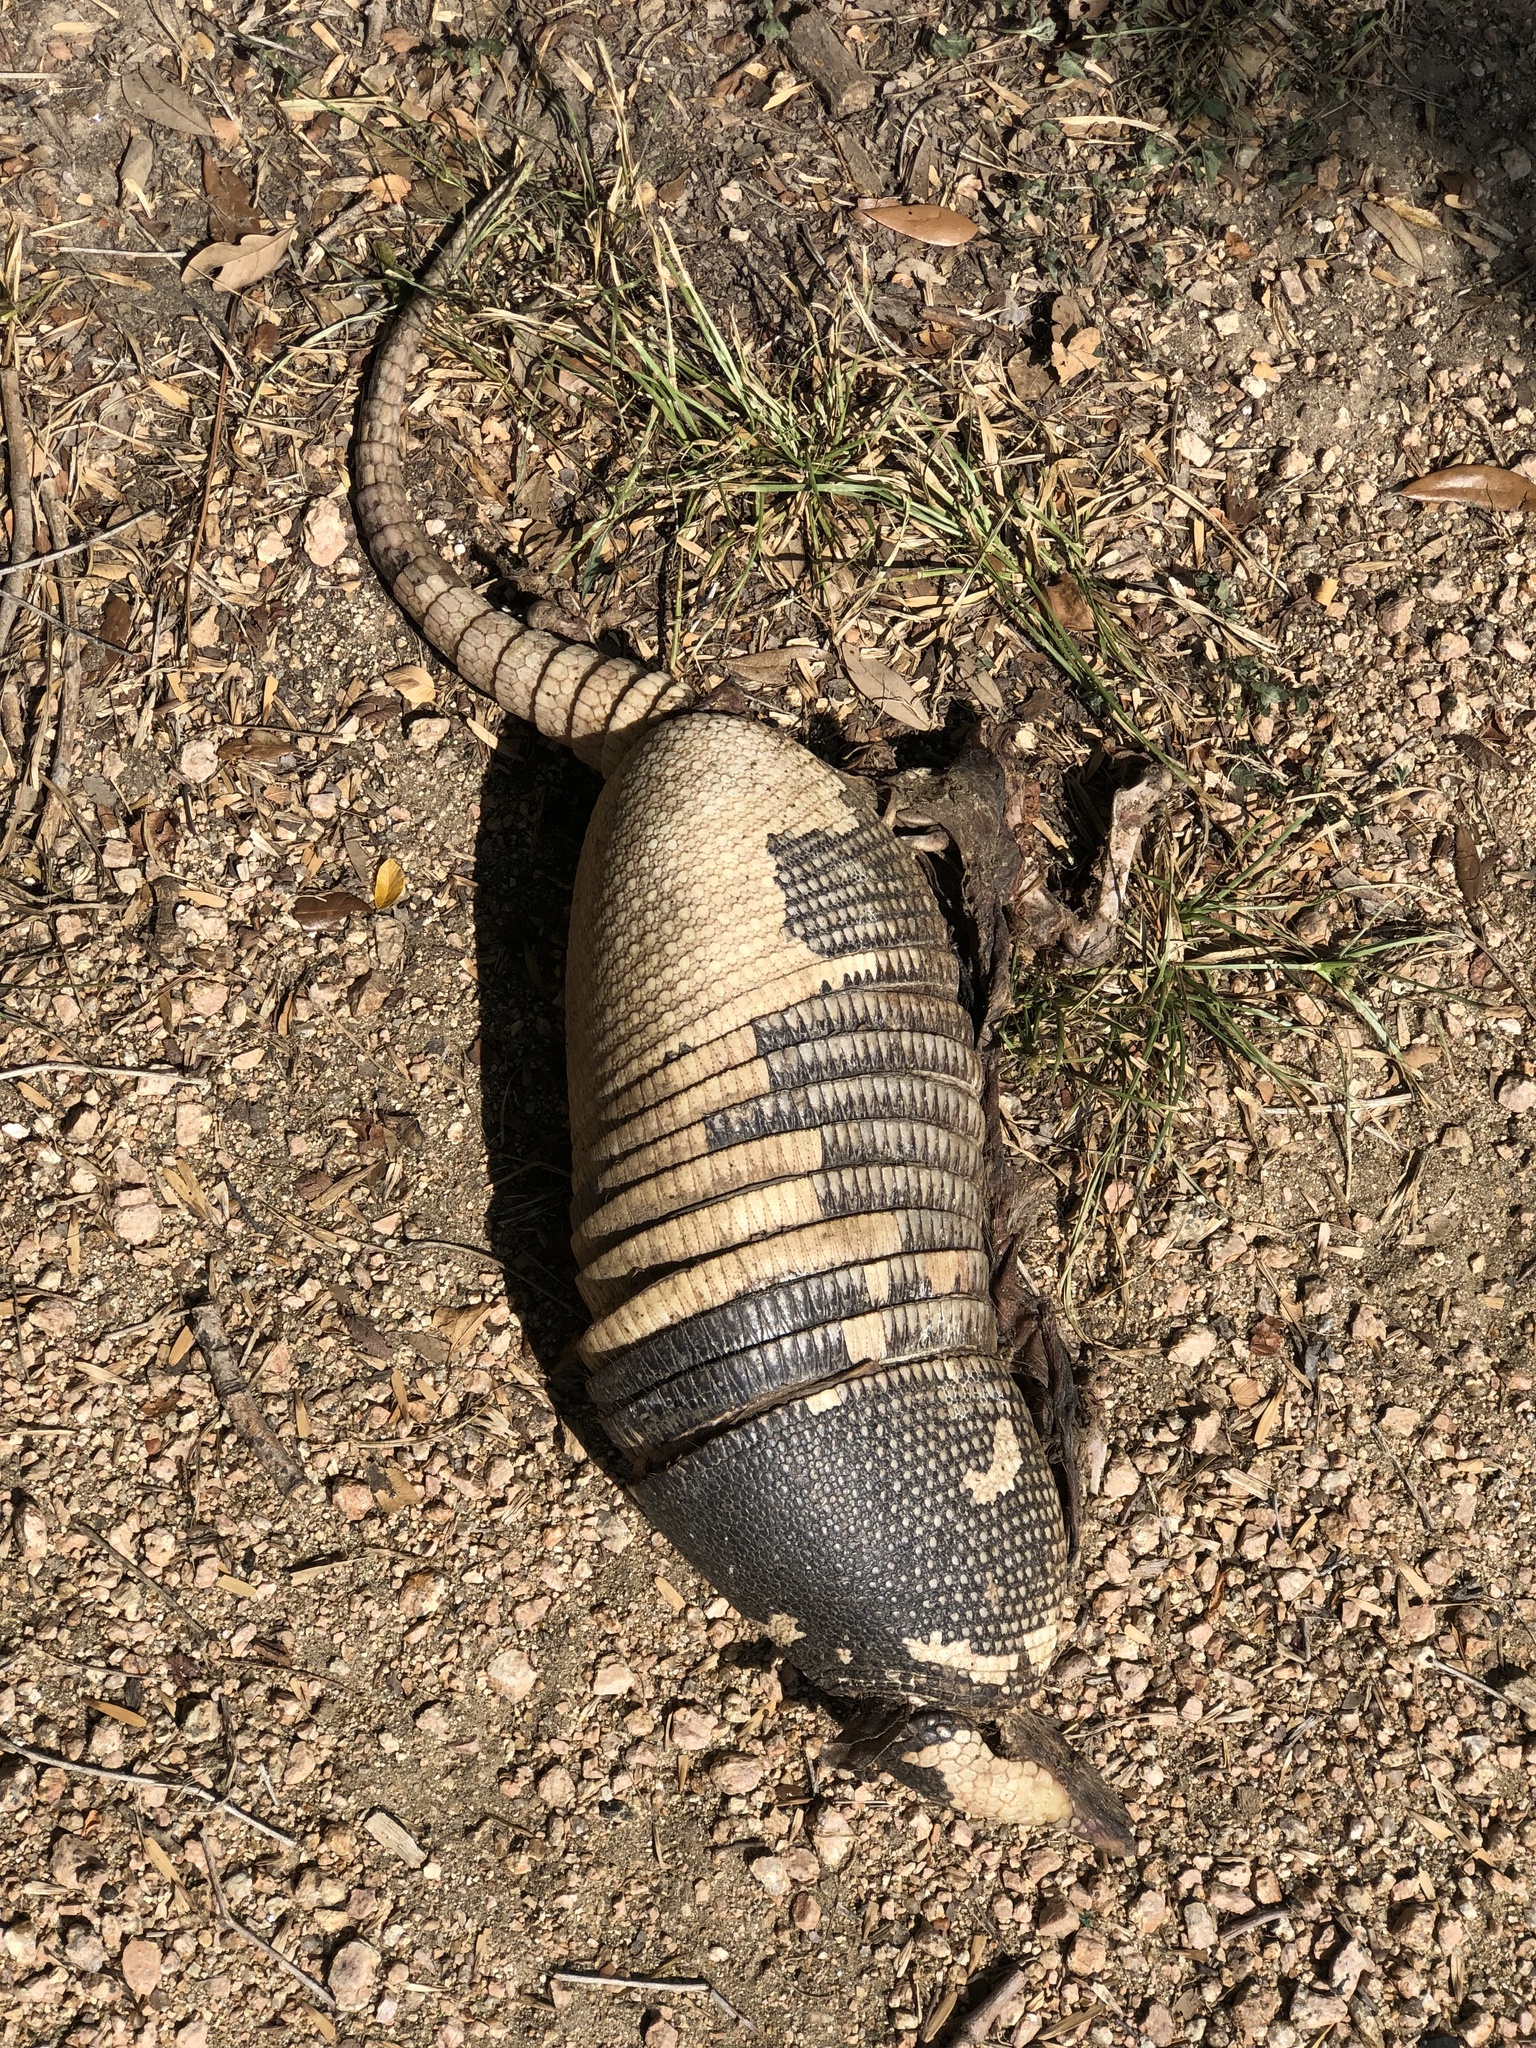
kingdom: Animalia
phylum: Chordata
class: Mammalia
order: Cingulata
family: Dasypodidae
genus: Dasypus
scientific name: Dasypus novemcinctus
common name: Nine-banded armadillo
